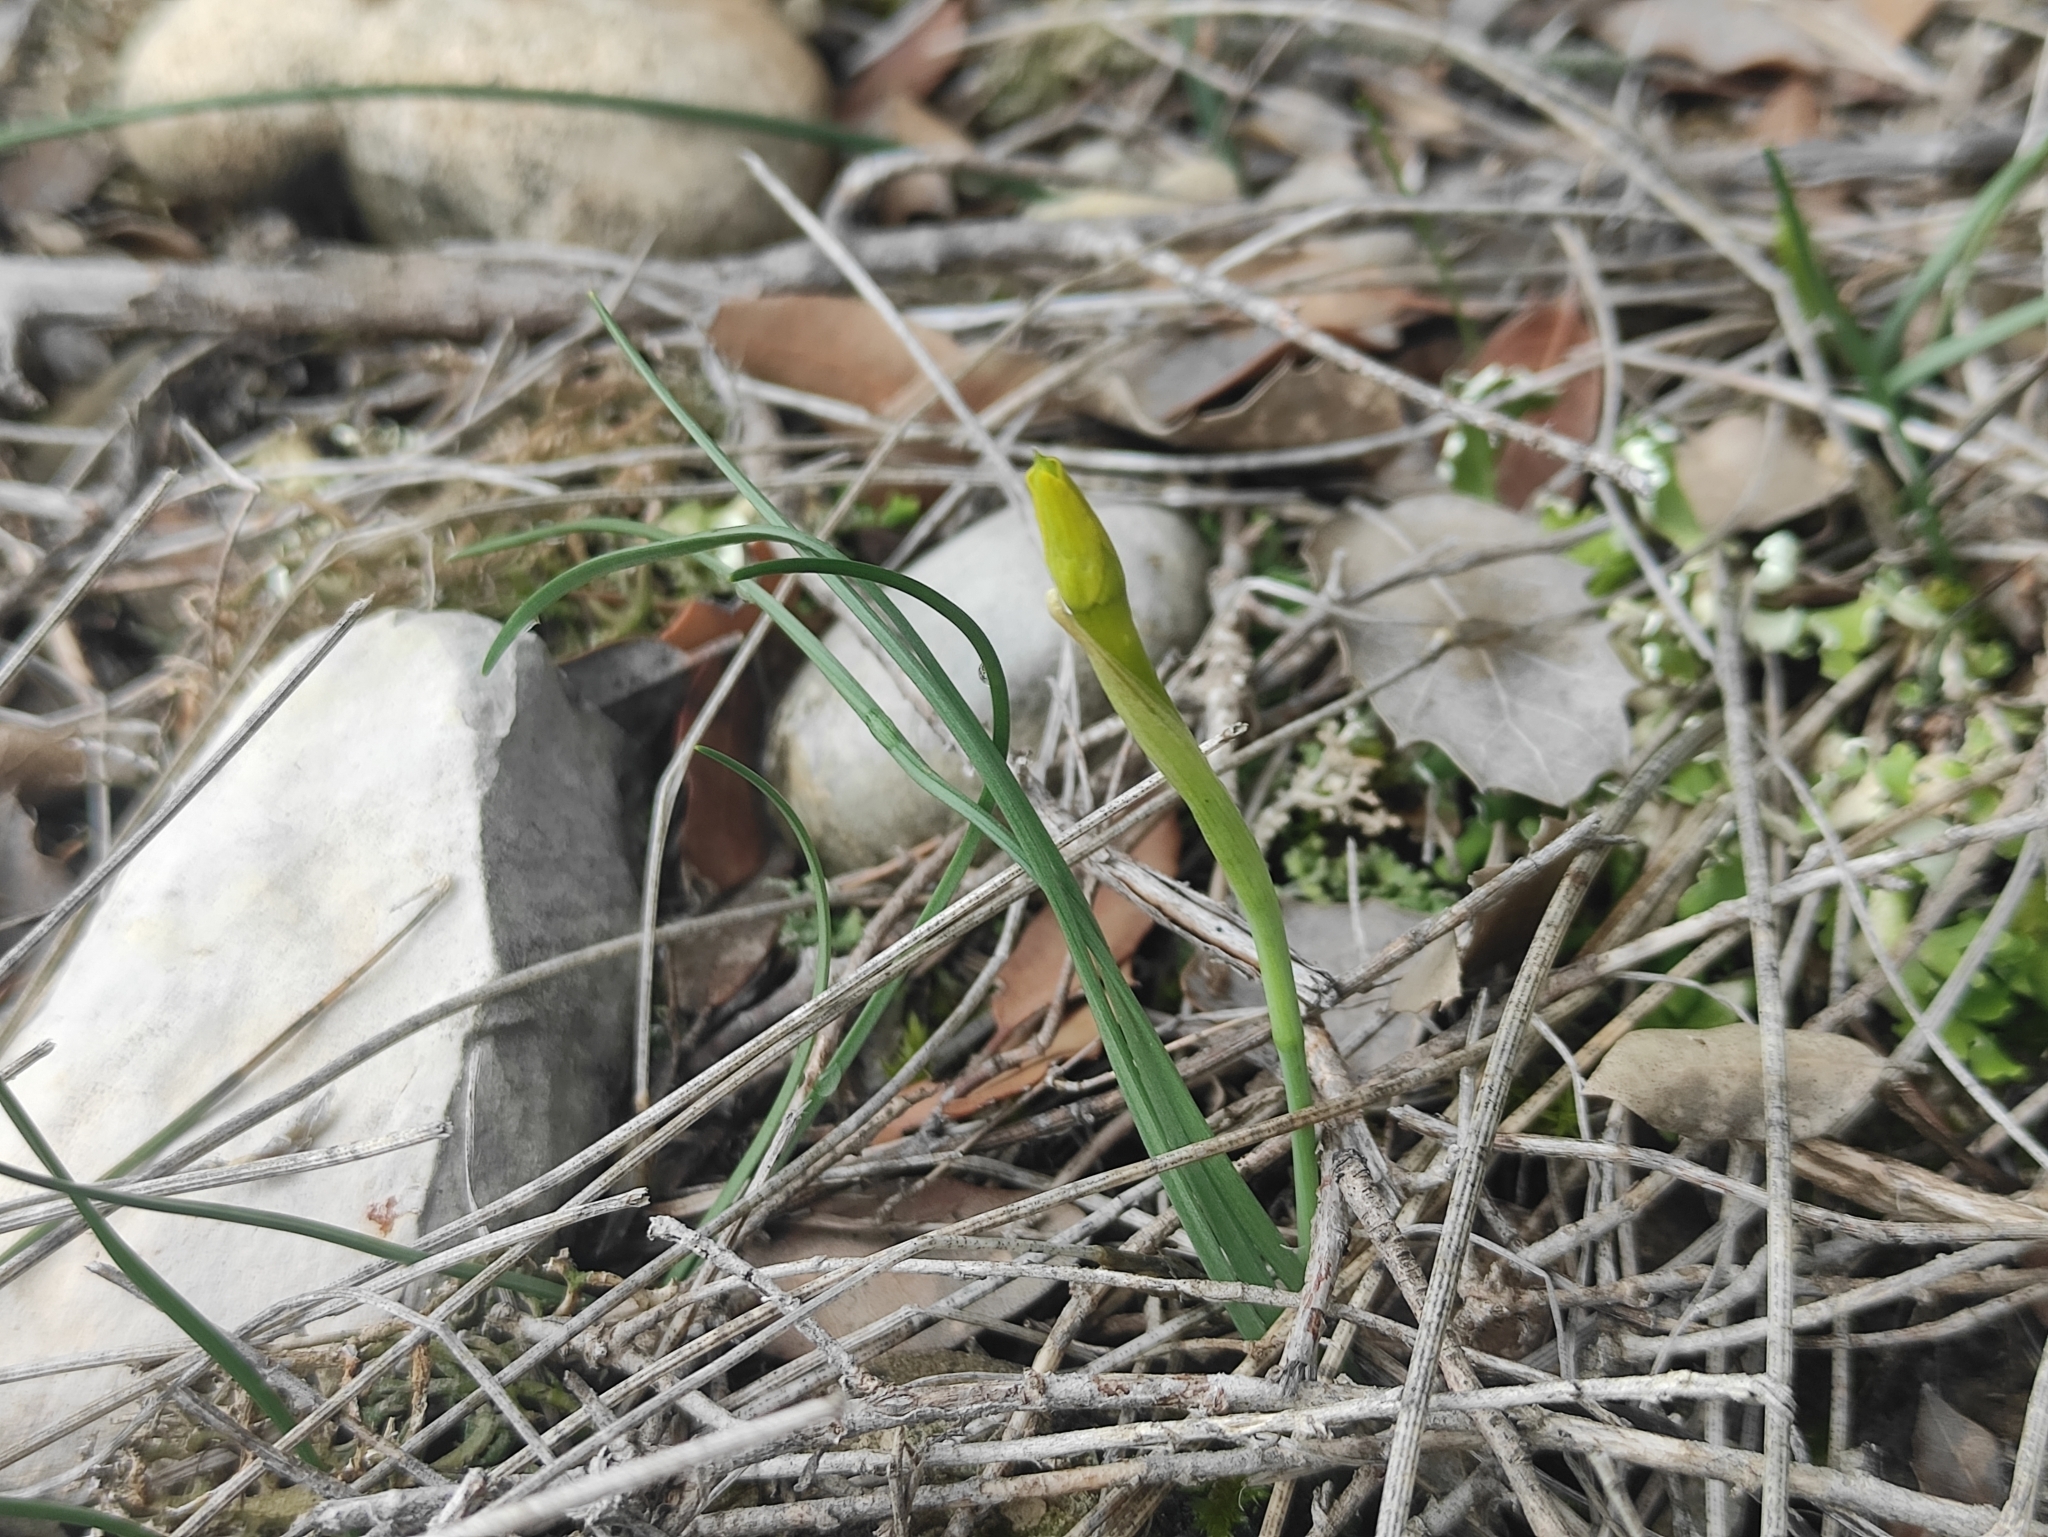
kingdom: Plantae
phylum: Tracheophyta
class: Liliopsida
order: Asparagales
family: Amaryllidaceae
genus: Narcissus
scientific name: Narcissus assoanus
